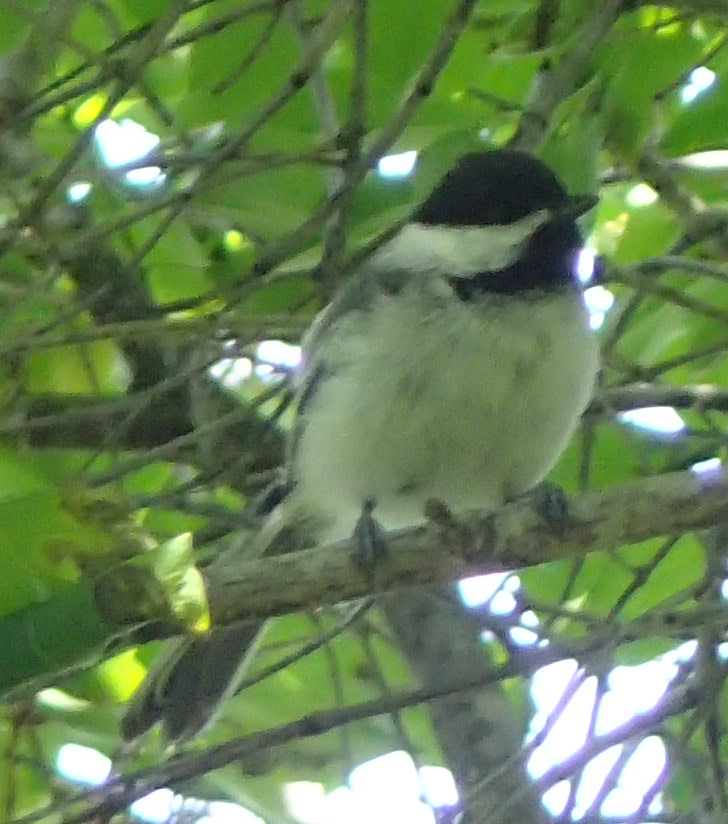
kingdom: Animalia
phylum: Chordata
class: Aves
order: Passeriformes
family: Paridae
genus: Poecile
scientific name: Poecile atricapillus
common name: Black-capped chickadee
